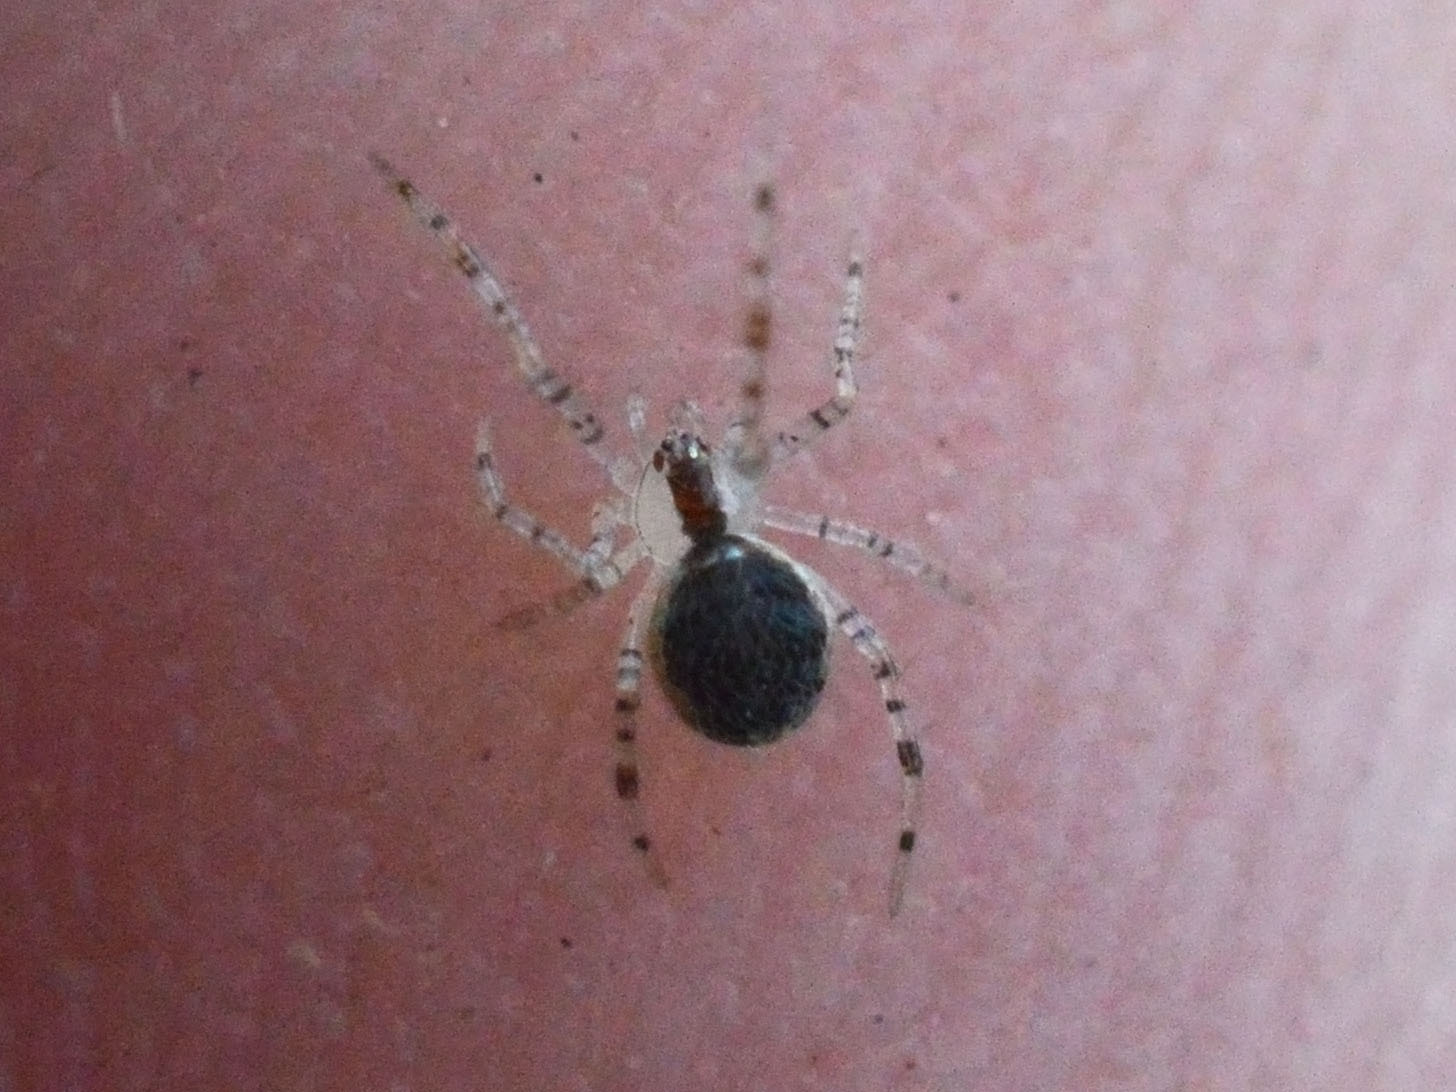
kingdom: Animalia
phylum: Arthropoda
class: Arachnida
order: Araneae
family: Theridiidae
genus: Theridion
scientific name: Theridion varians
